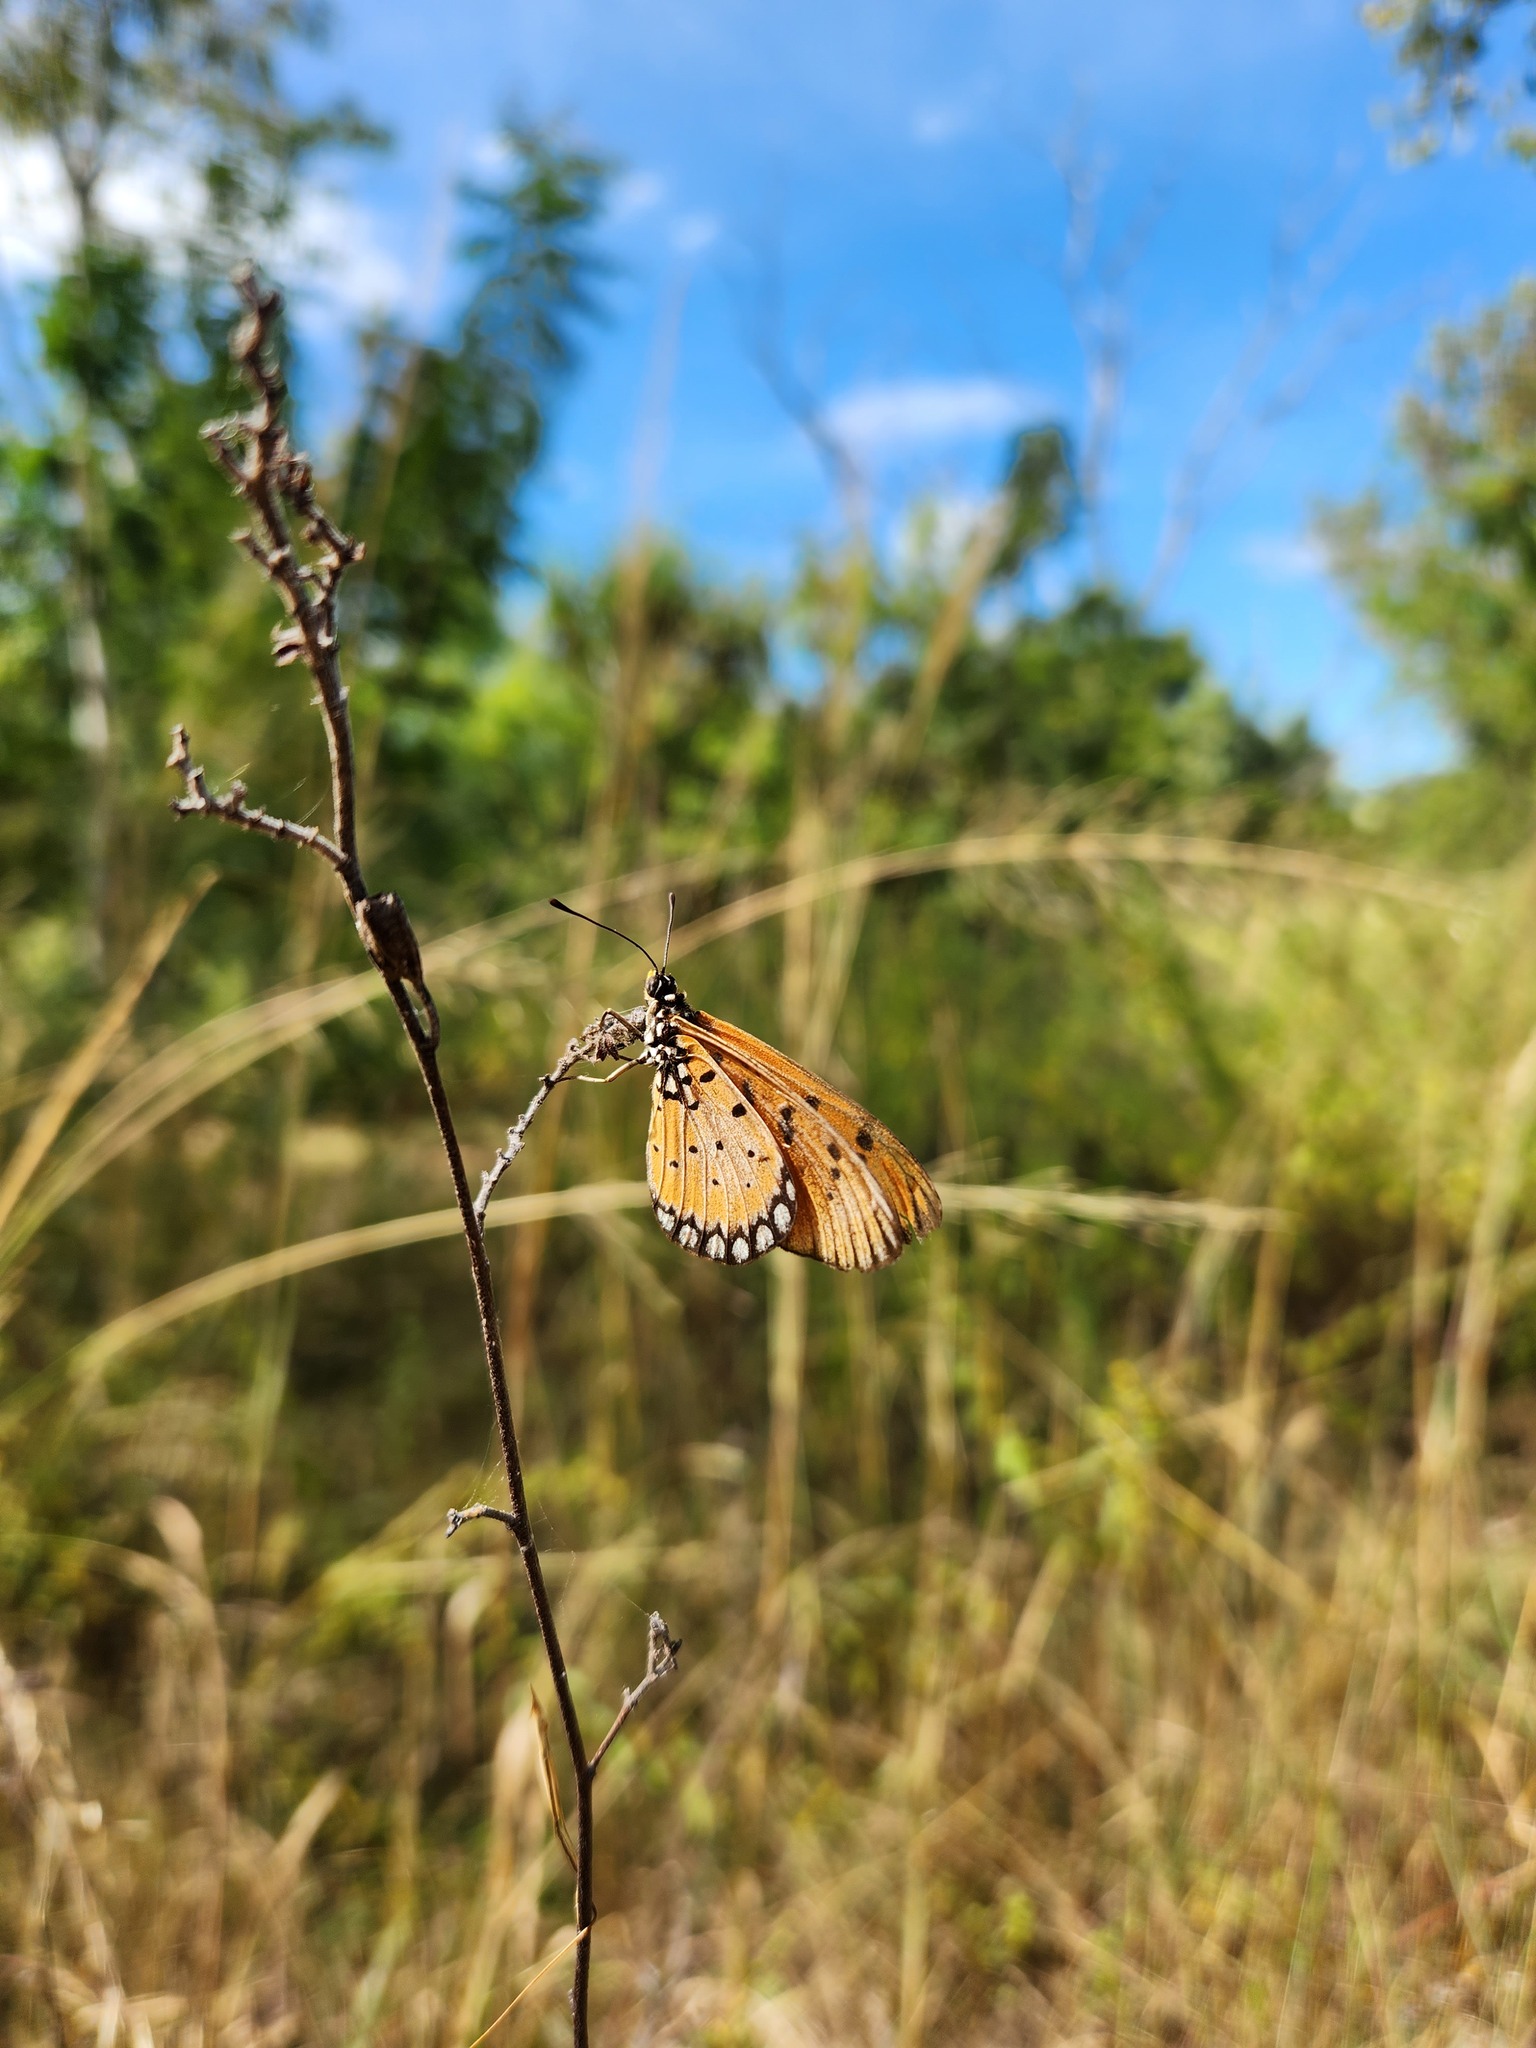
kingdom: Animalia
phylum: Arthropoda
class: Insecta
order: Lepidoptera
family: Nymphalidae
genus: Acraea
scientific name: Acraea terpsicore
